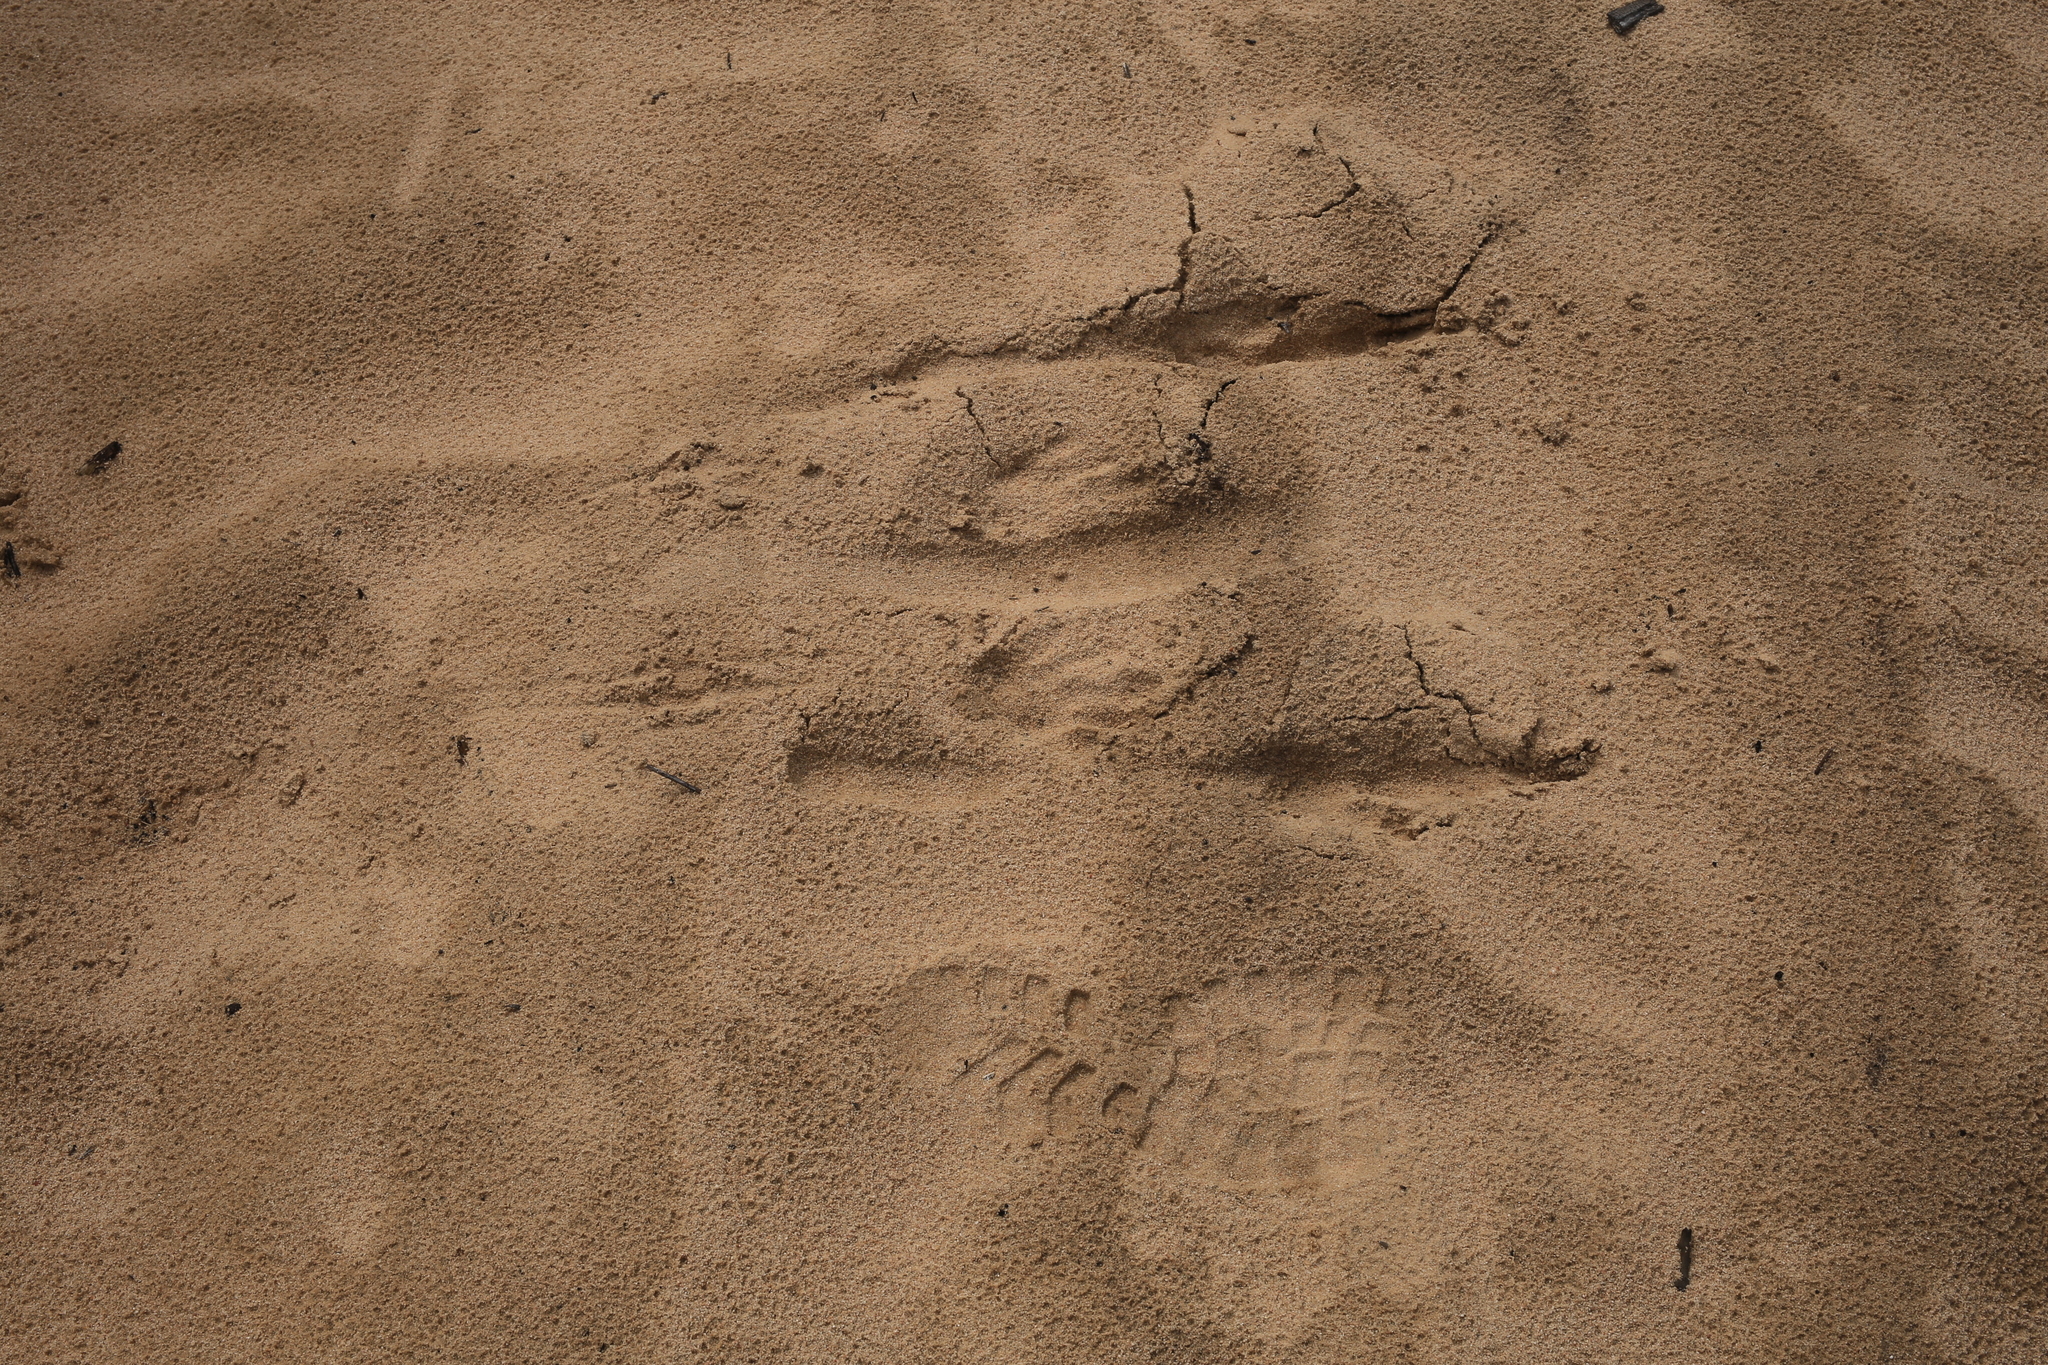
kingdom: Animalia
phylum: Chordata
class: Mammalia
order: Diprotodontia
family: Macropodidae
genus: Macropus
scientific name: Macropus fuliginosus
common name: Western grey kangaroo
